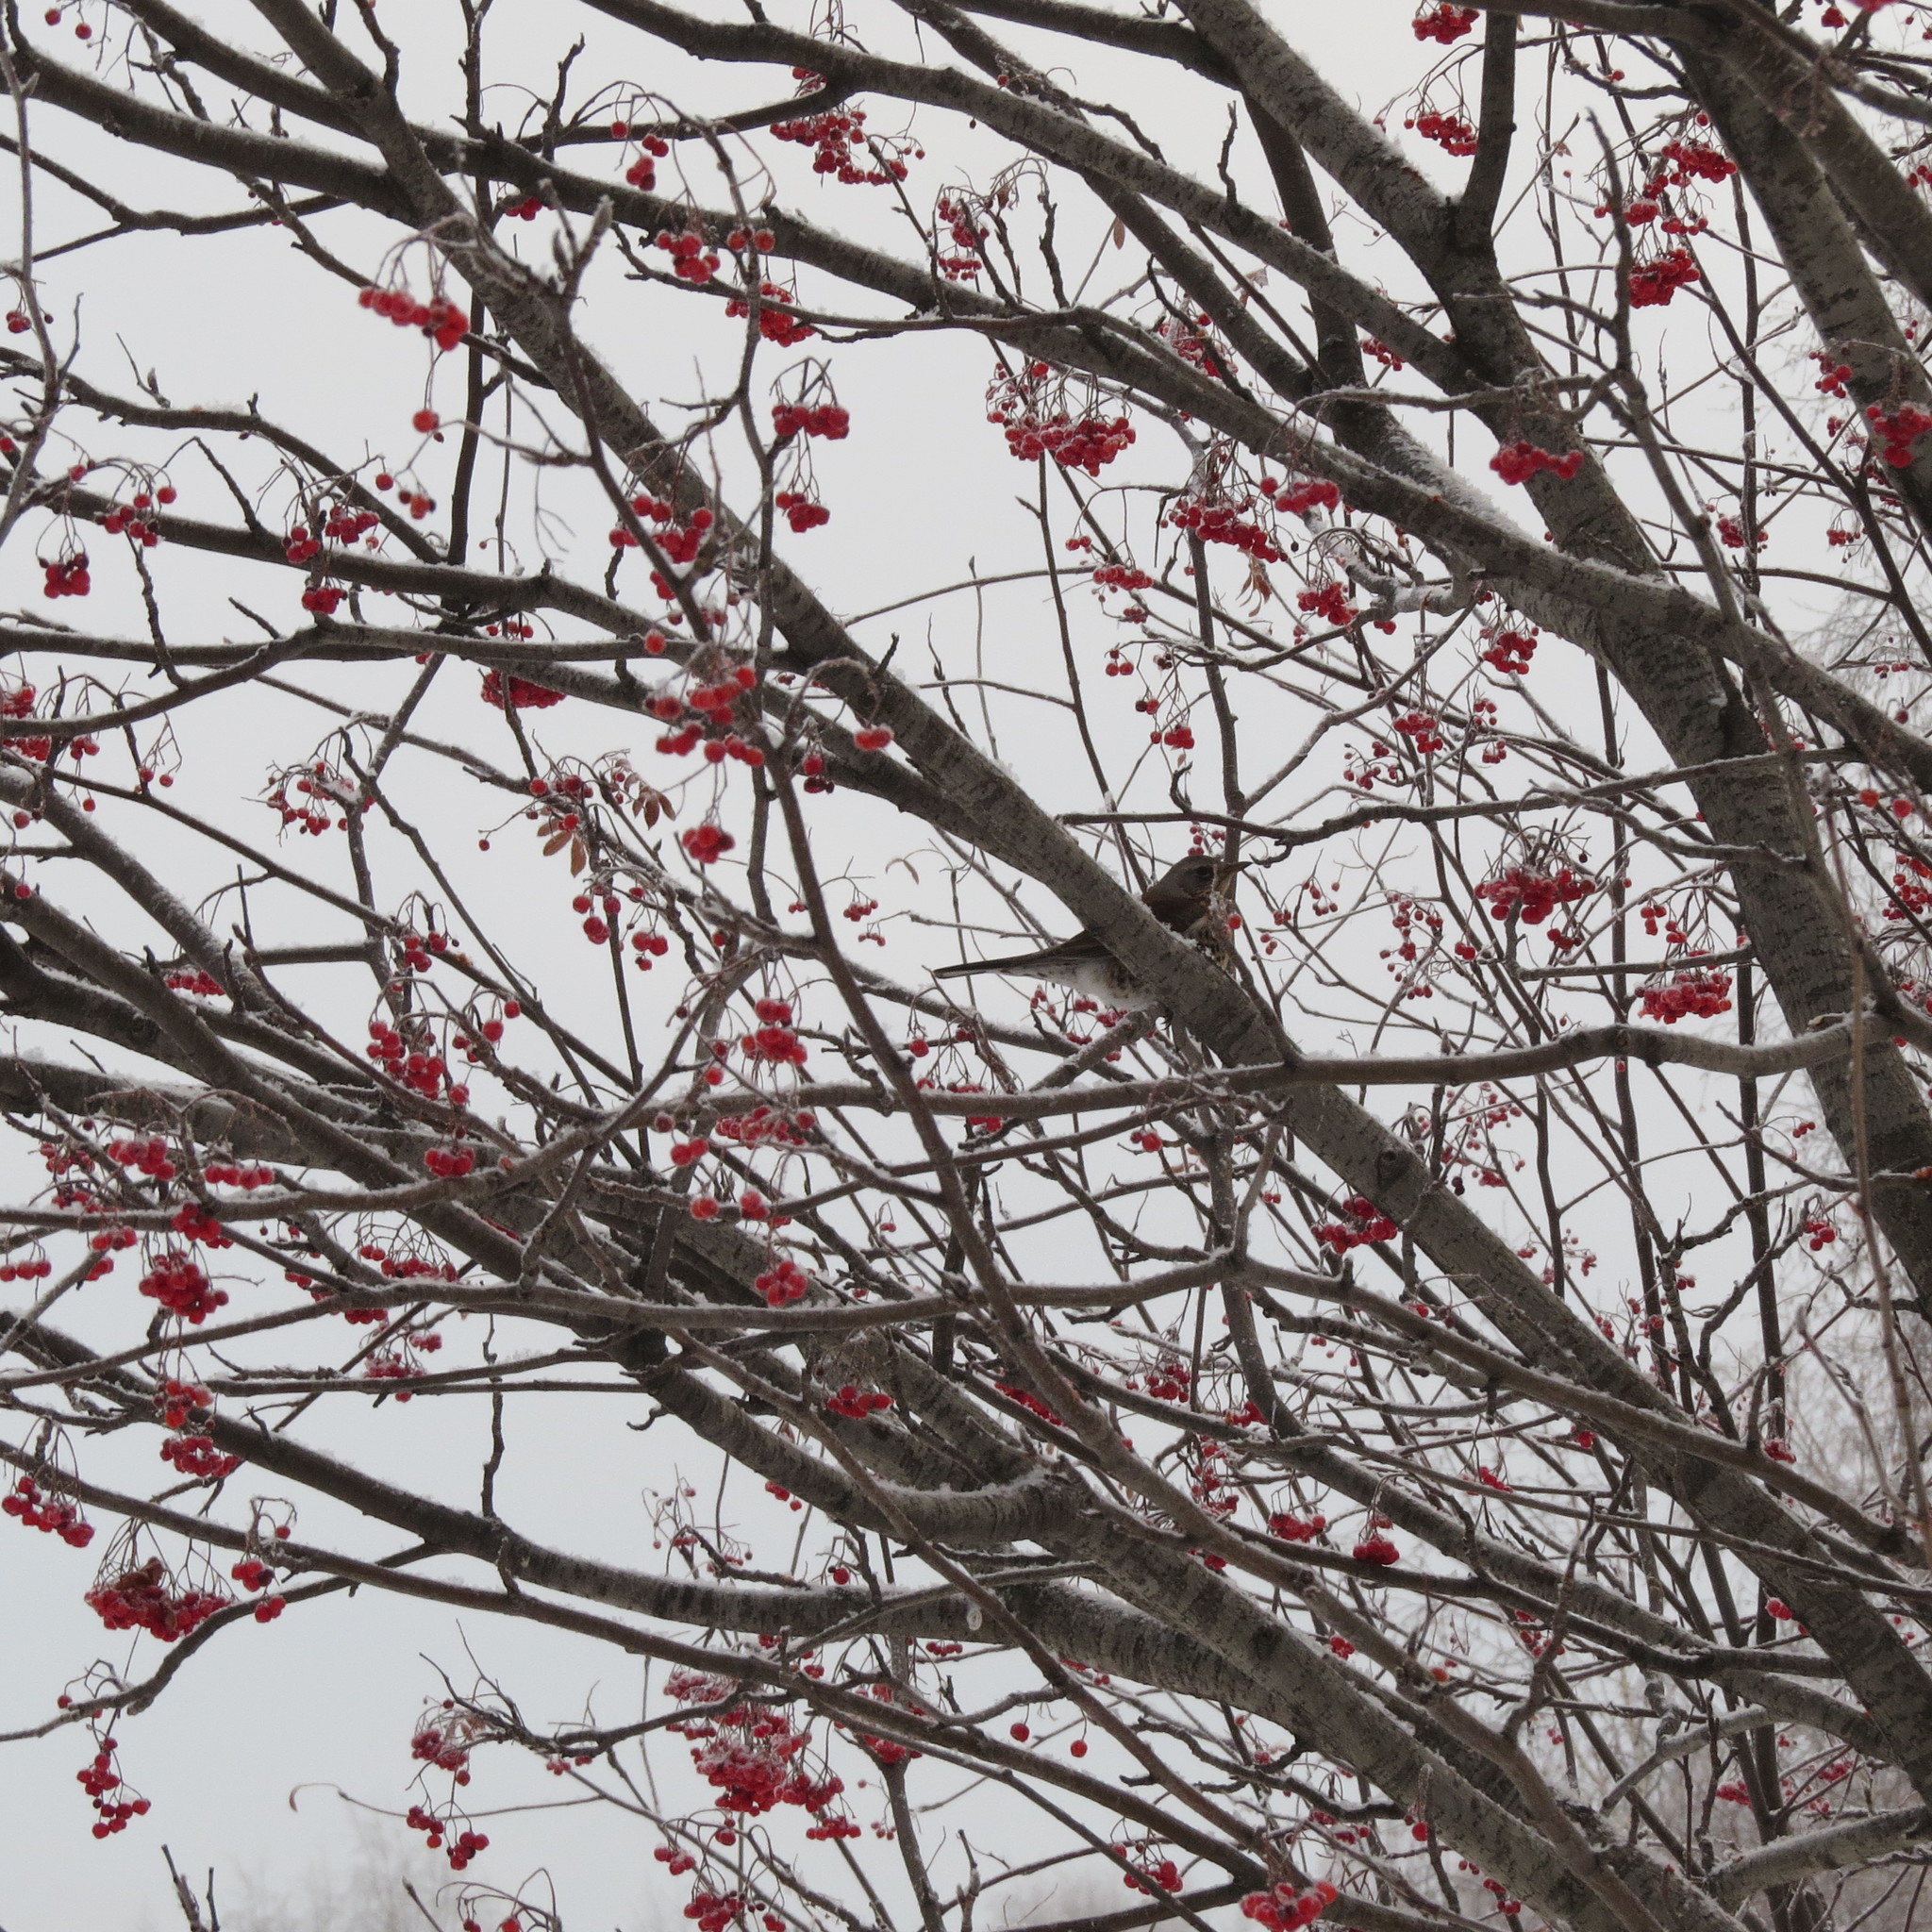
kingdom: Animalia
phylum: Chordata
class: Aves
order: Passeriformes
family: Turdidae
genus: Turdus
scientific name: Turdus pilaris
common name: Fieldfare
